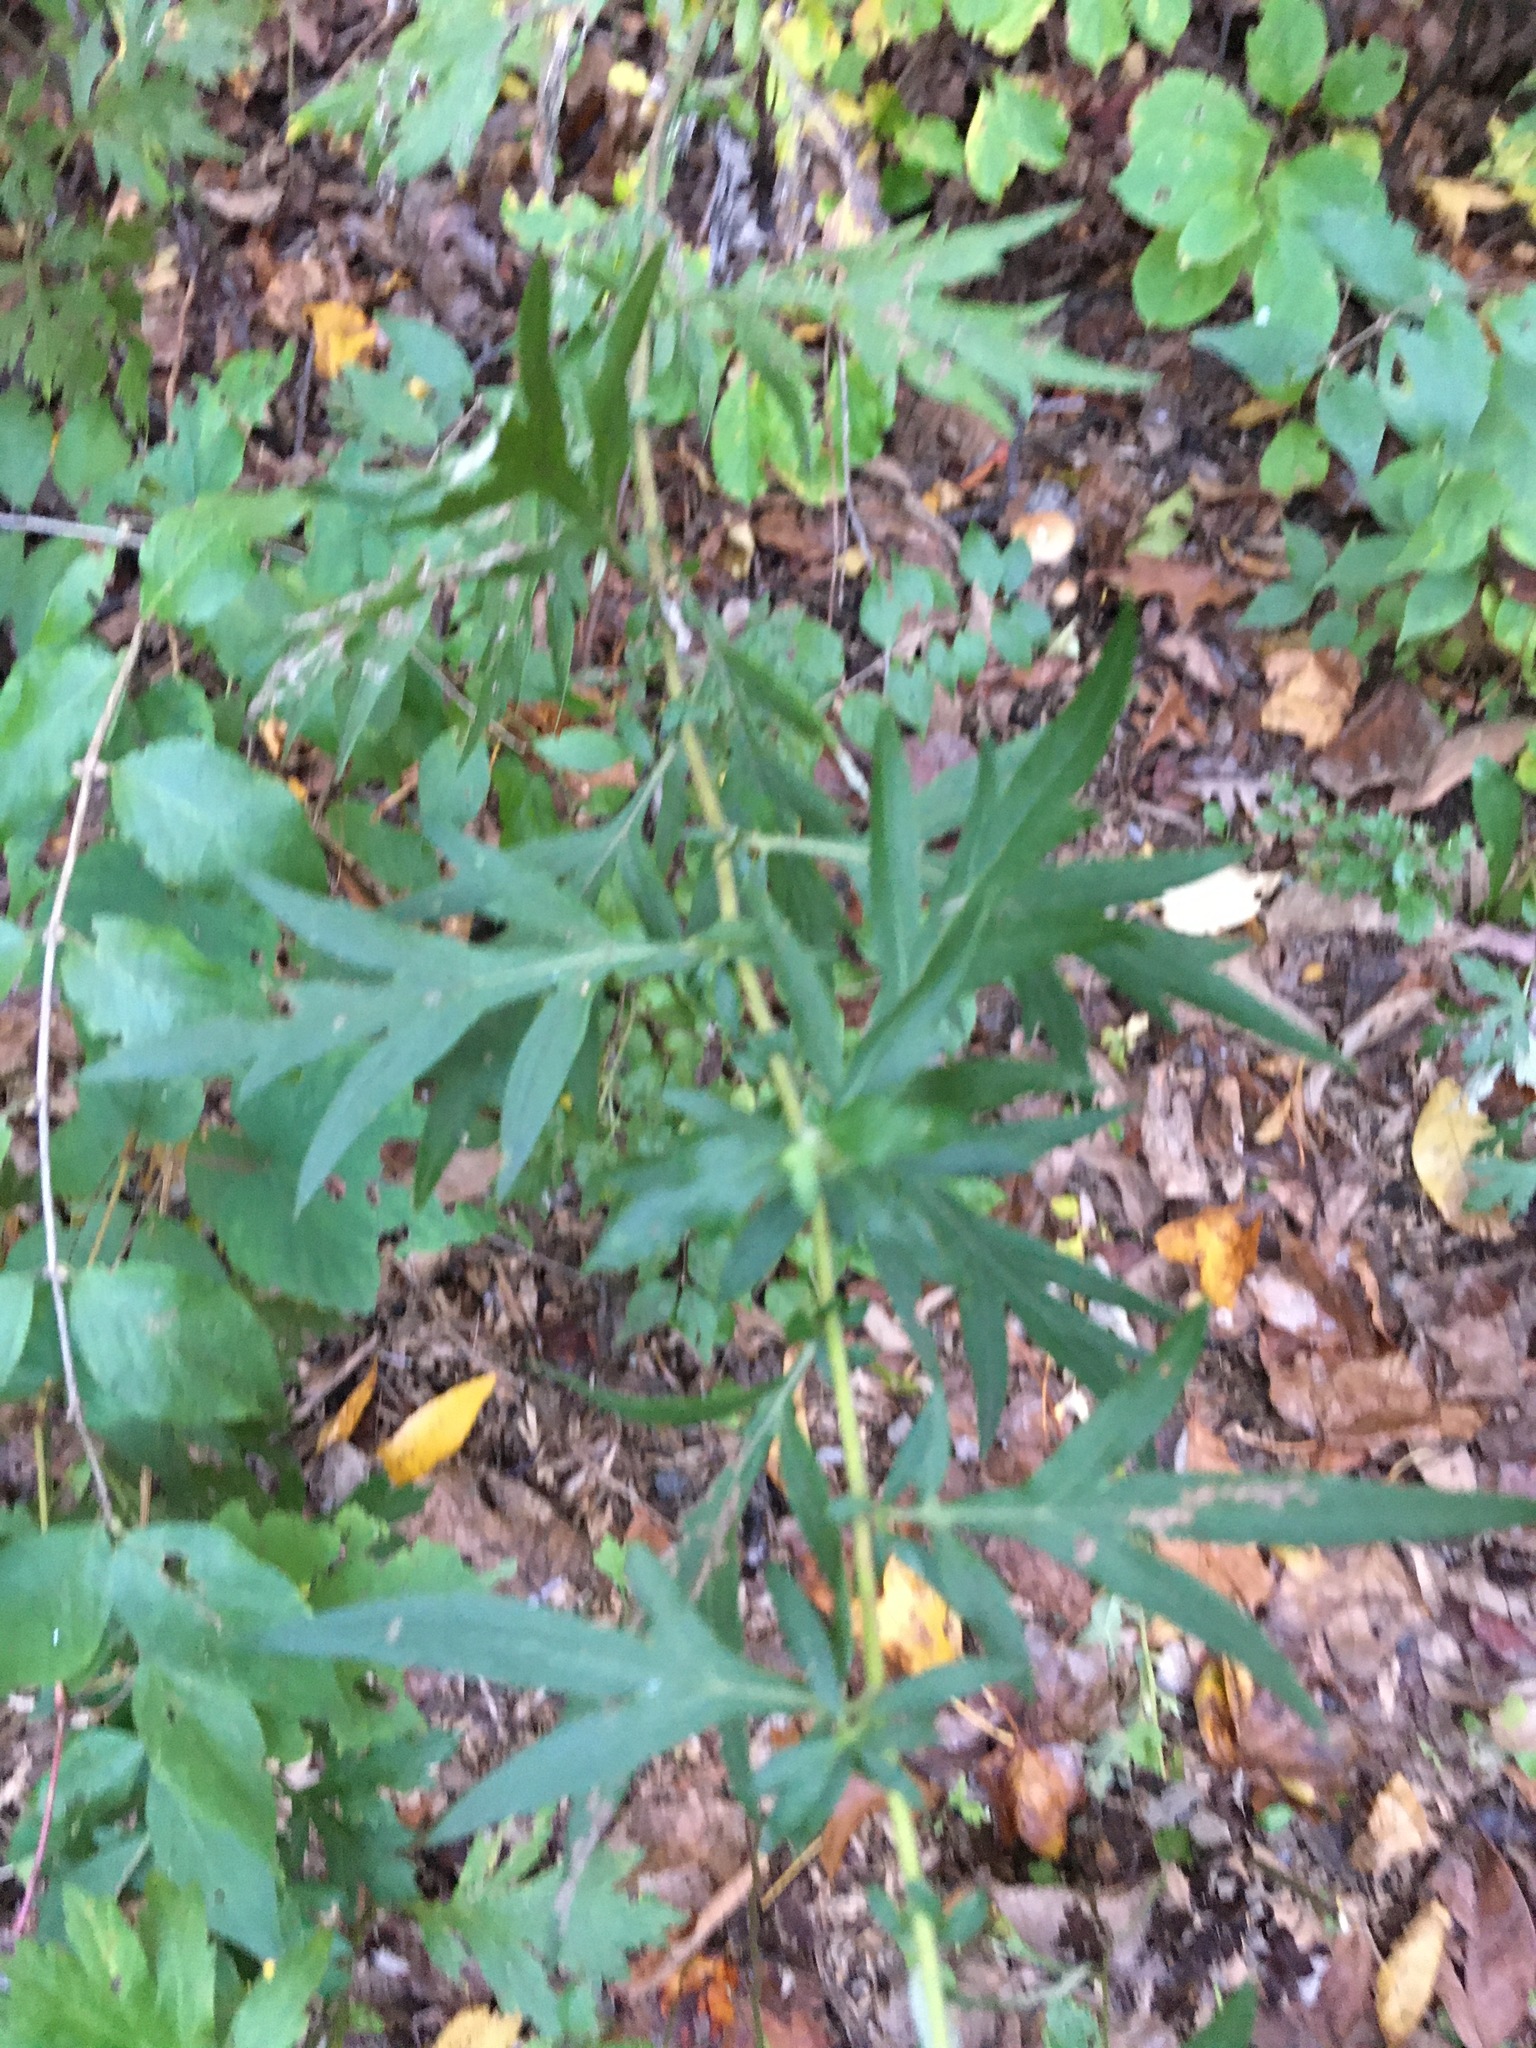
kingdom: Plantae
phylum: Tracheophyta
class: Magnoliopsida
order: Asterales
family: Asteraceae
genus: Artemisia
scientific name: Artemisia vulgaris
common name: Mugwort
